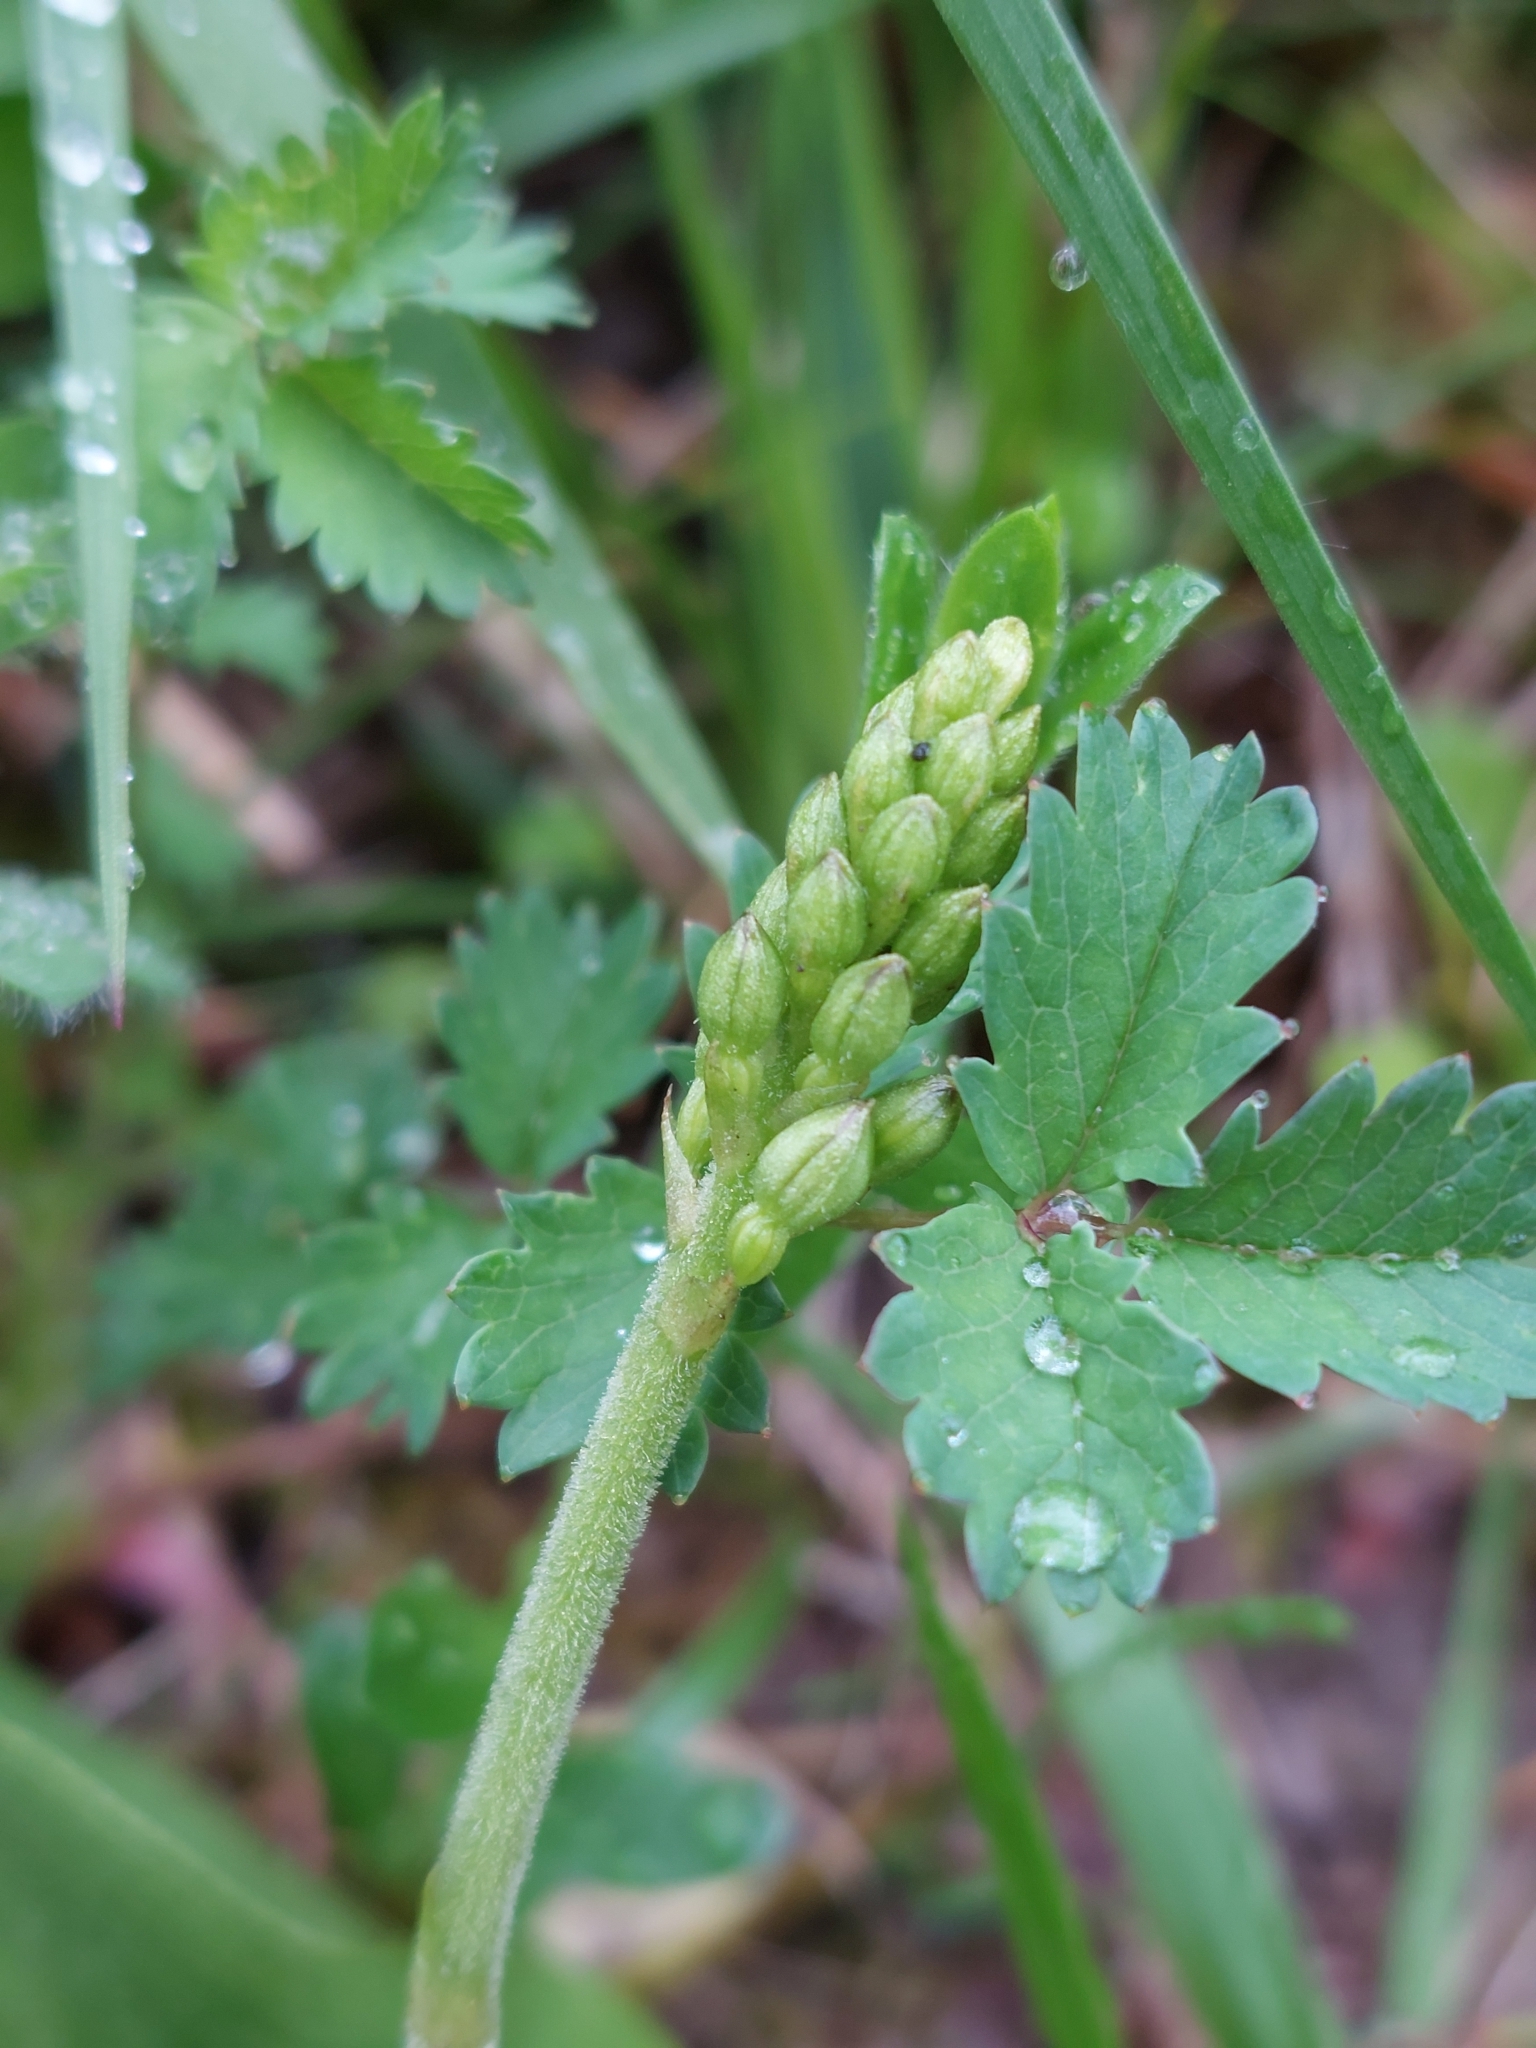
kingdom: Plantae
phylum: Tracheophyta
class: Liliopsida
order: Asparagales
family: Orchidaceae
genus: Neottia
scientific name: Neottia ovata
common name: Common twayblade
